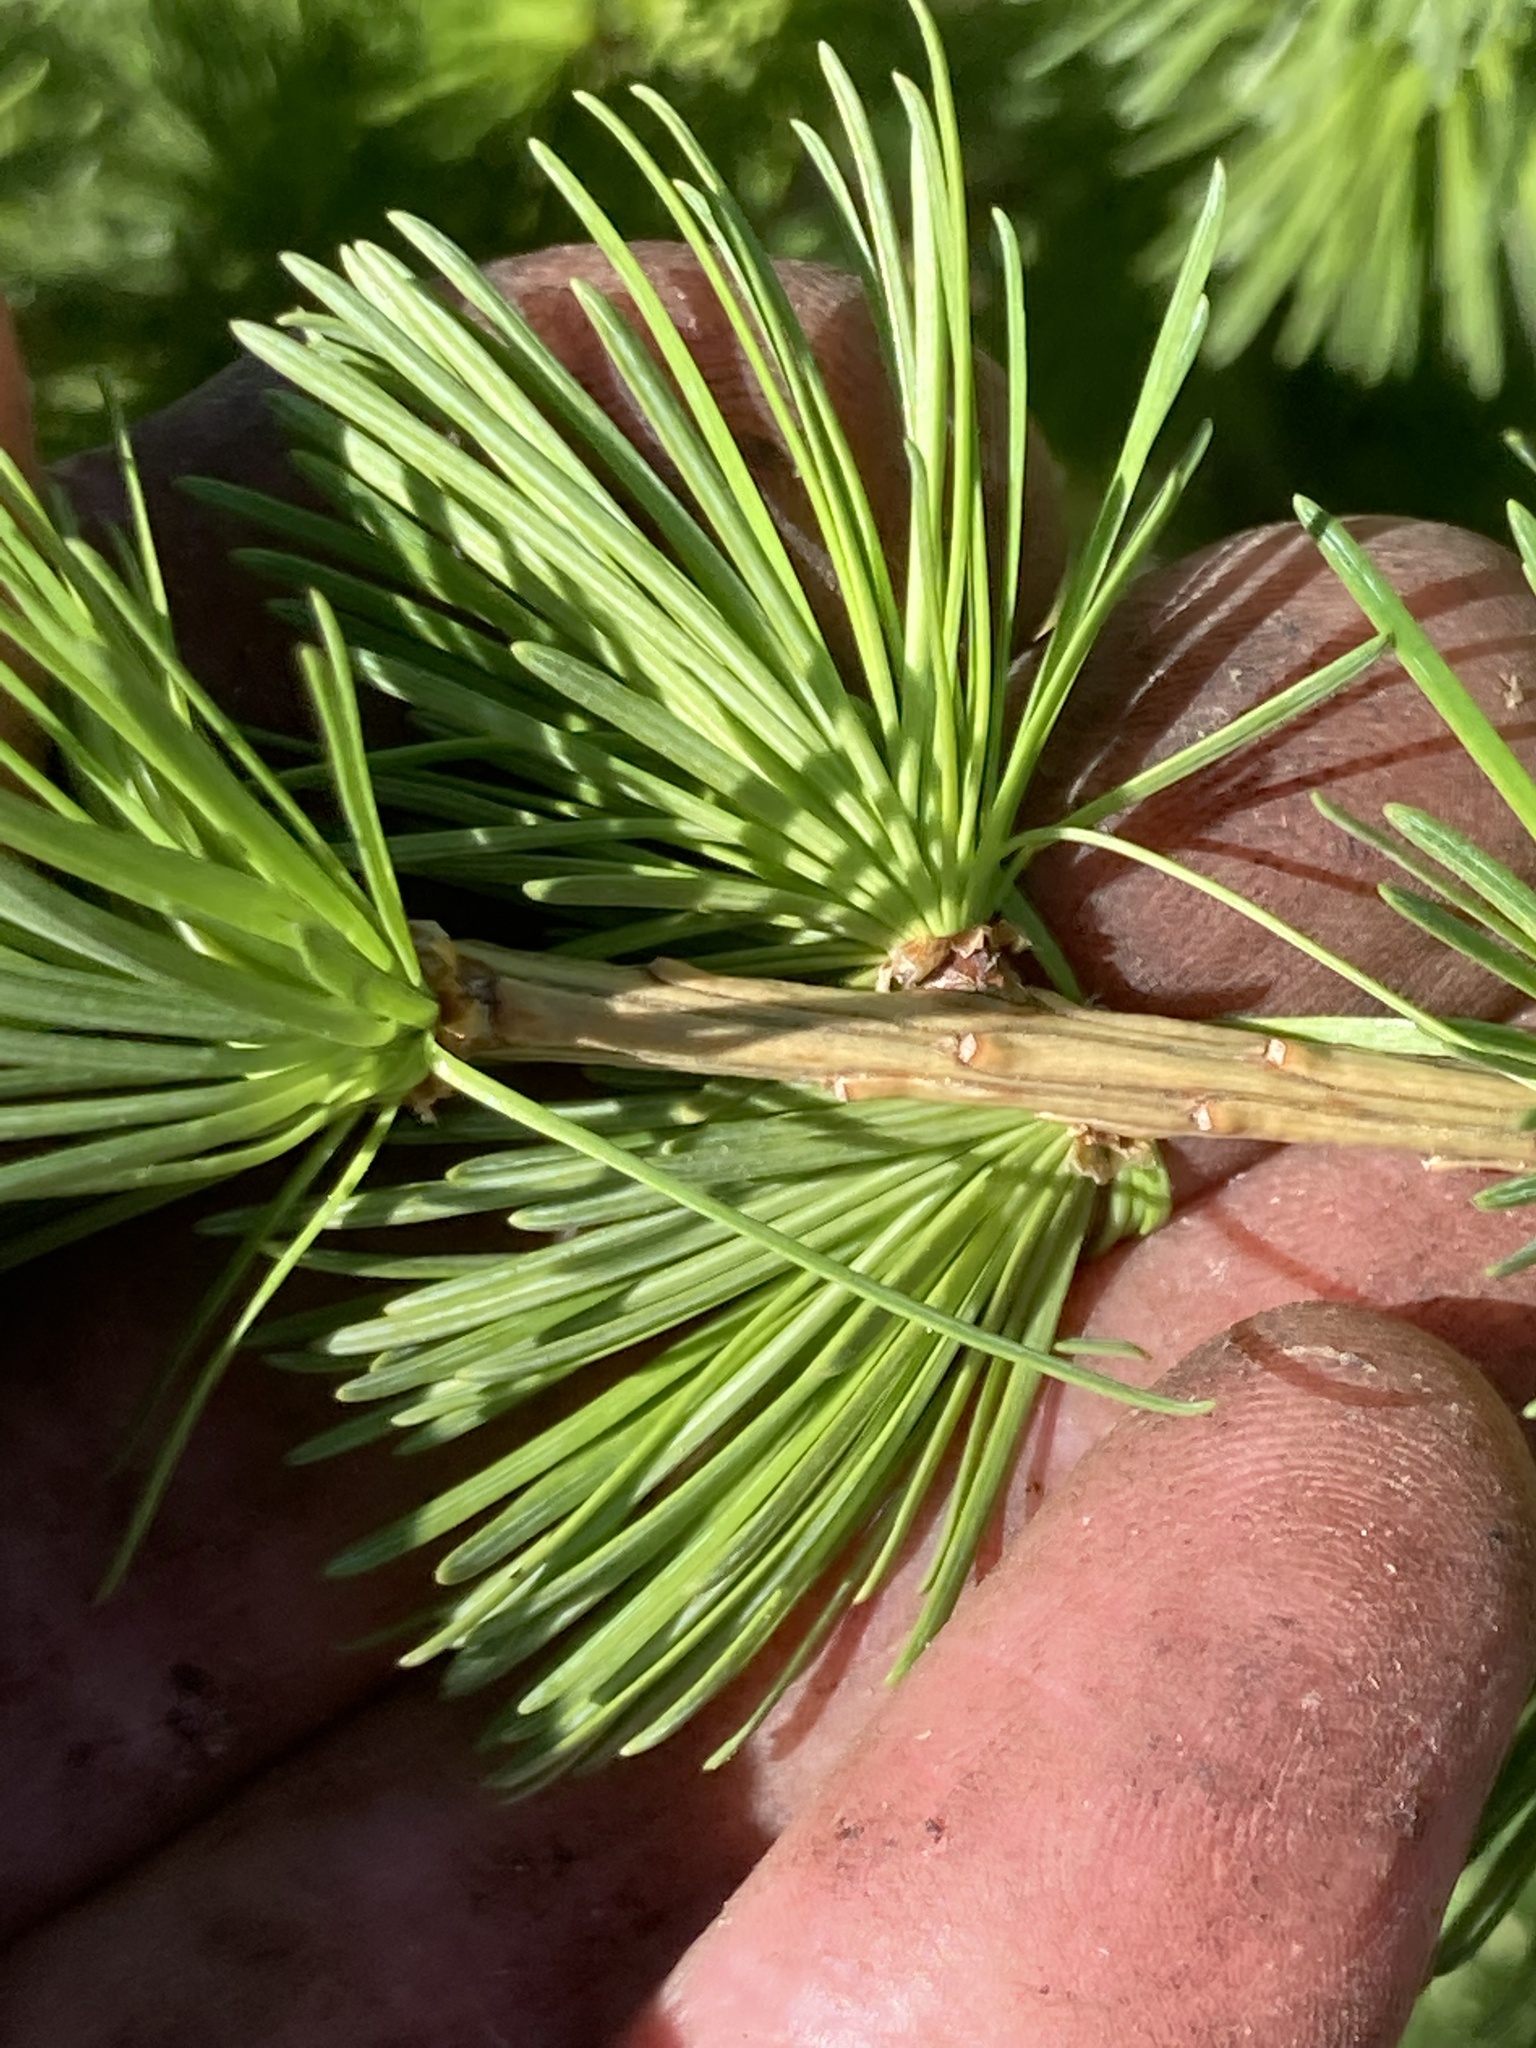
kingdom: Plantae
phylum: Tracheophyta
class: Pinopsida
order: Pinales
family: Pinaceae
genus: Larix
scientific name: Larix decidua
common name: European larch
